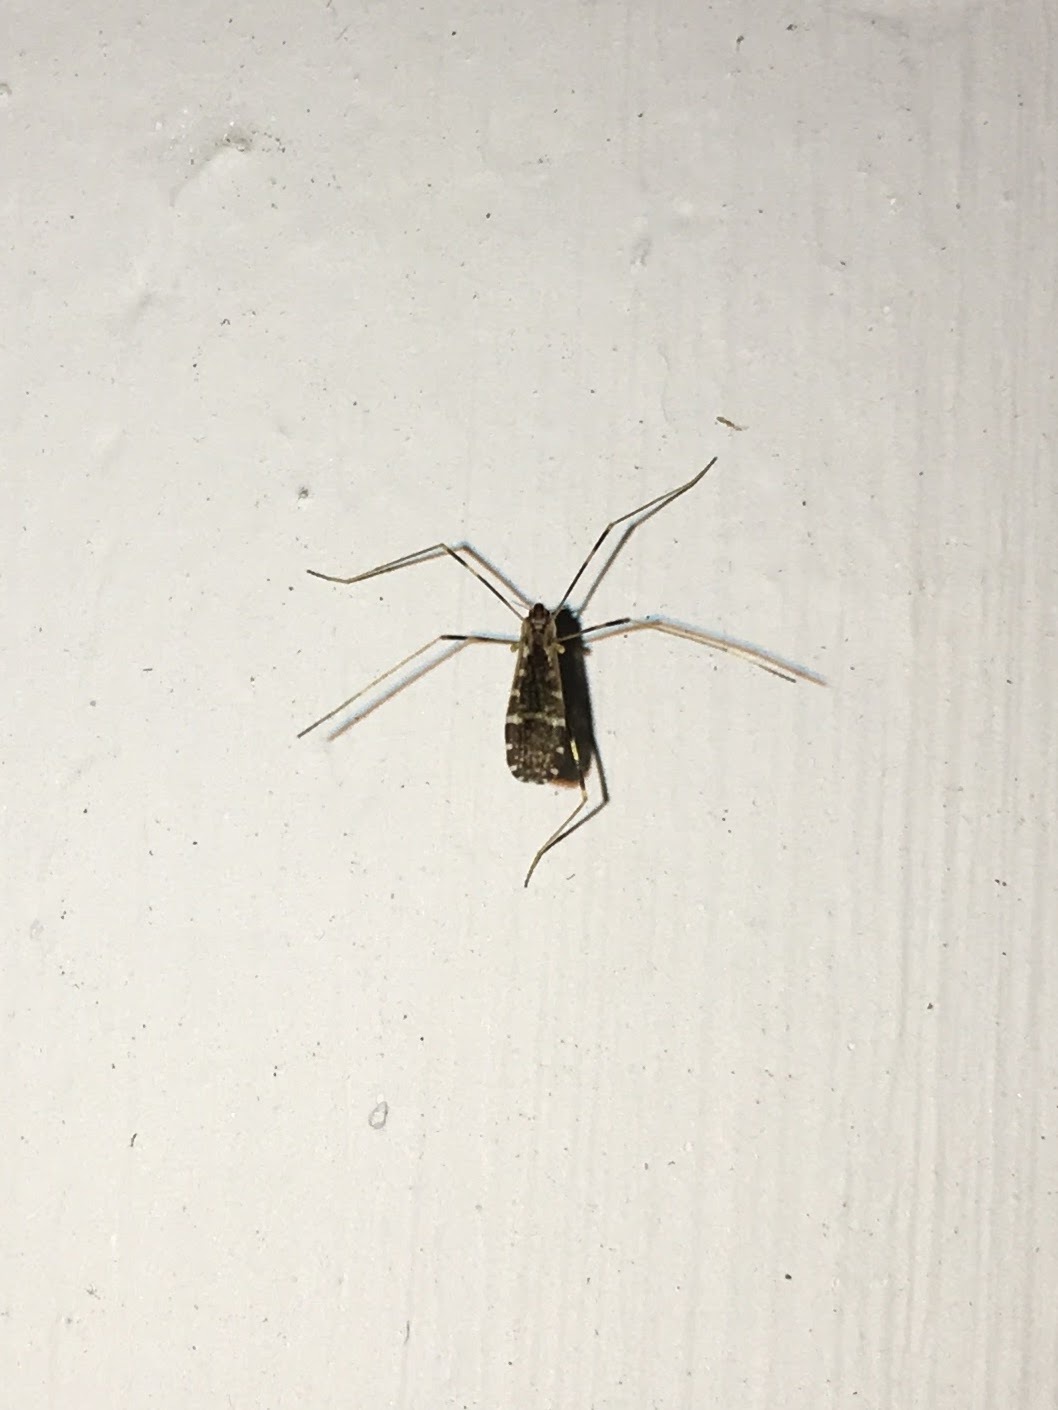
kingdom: Animalia
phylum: Arthropoda
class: Insecta
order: Diptera
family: Limoniidae
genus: Erioptera
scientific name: Erioptera caliptera
